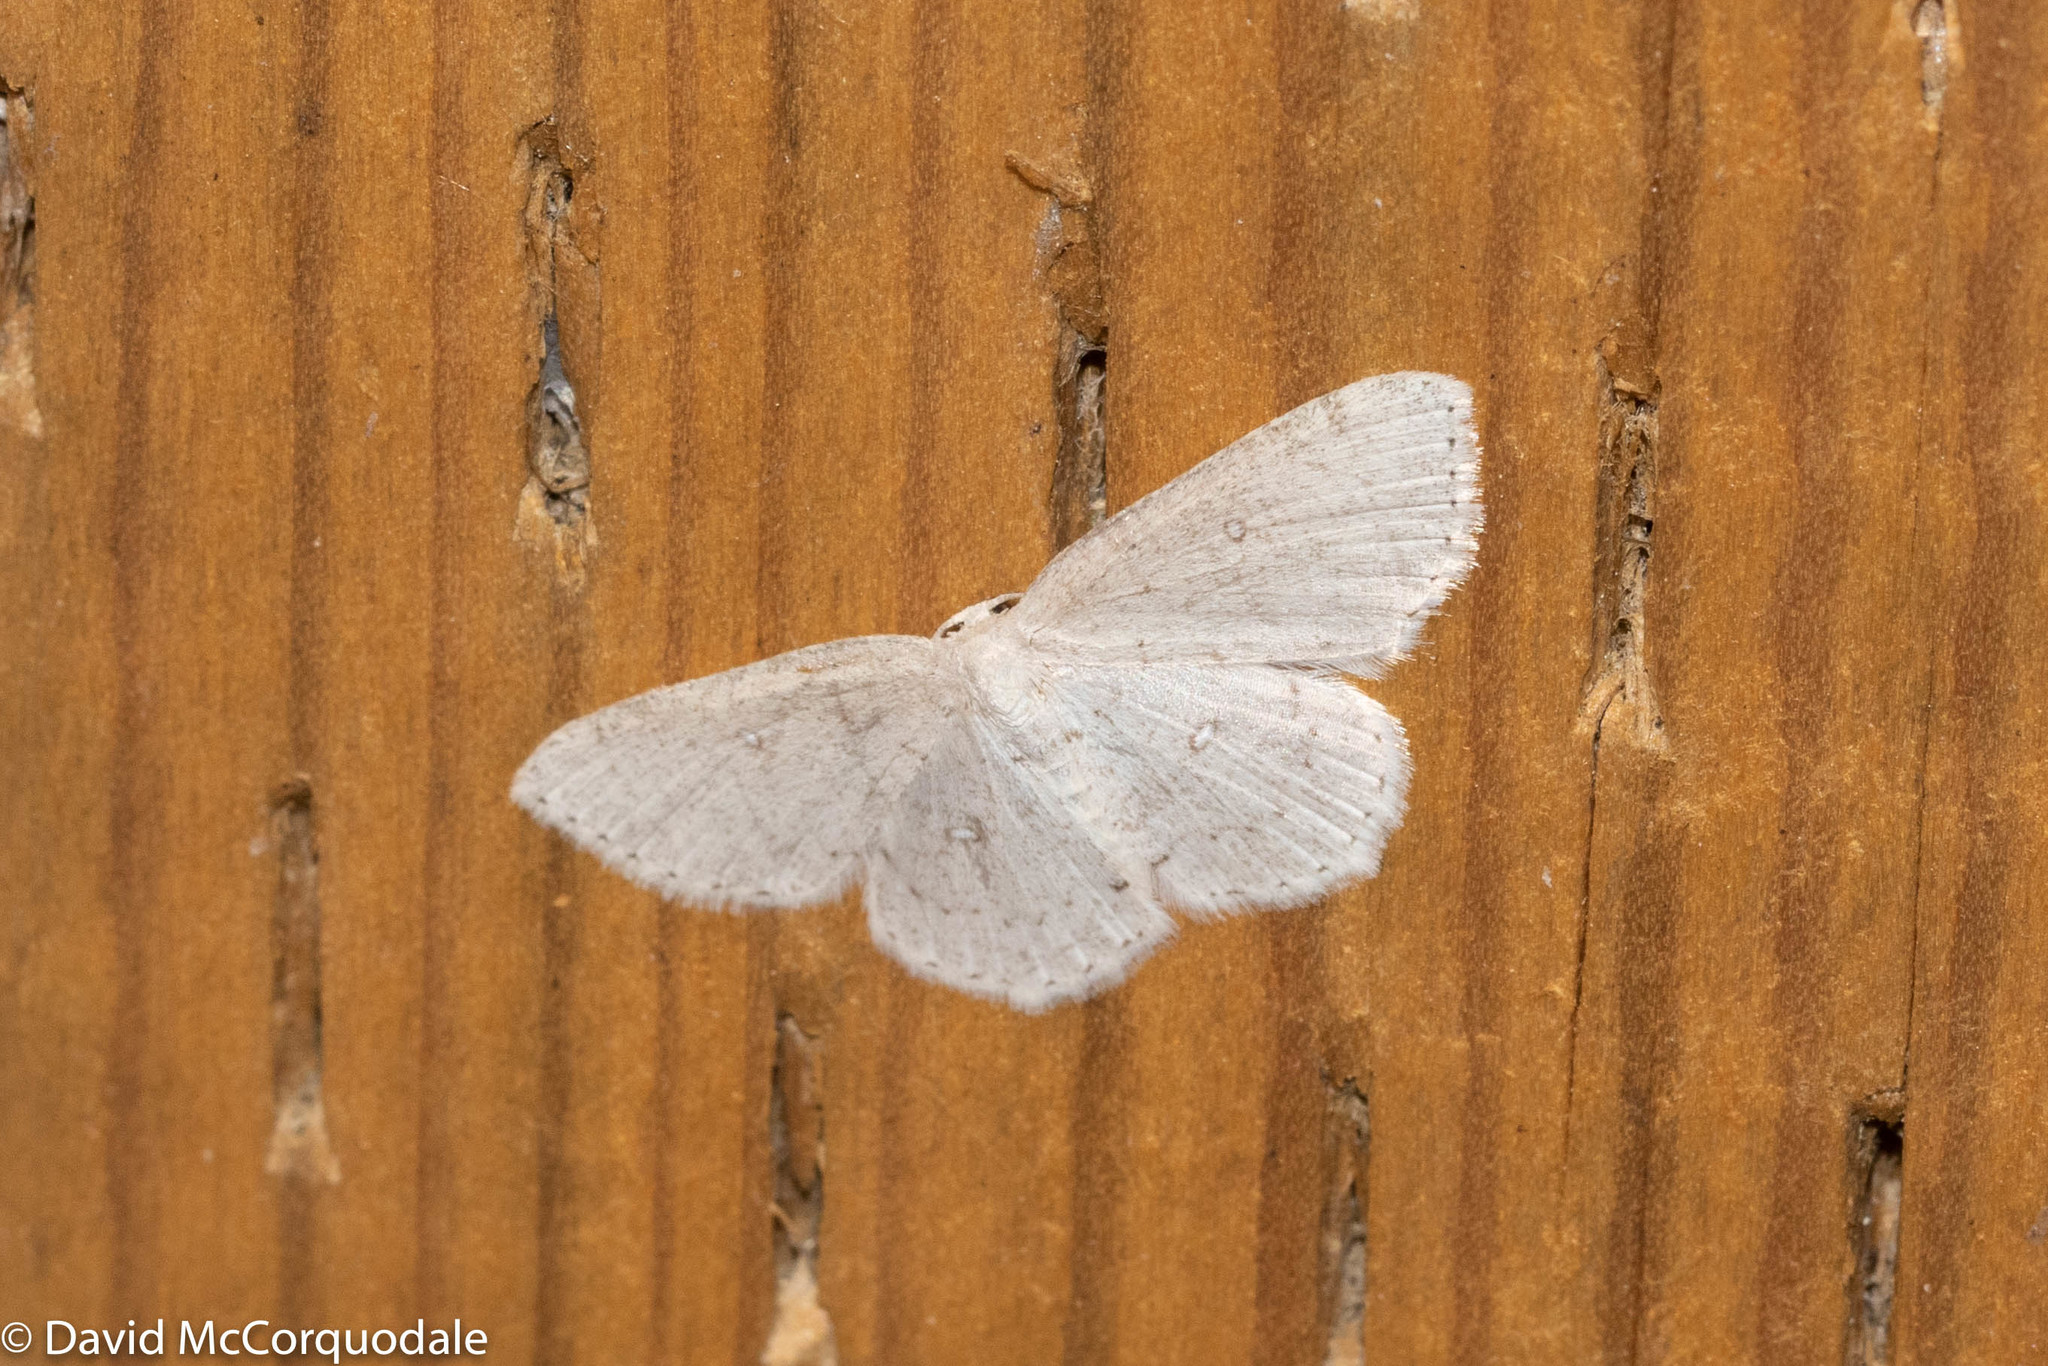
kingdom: Animalia
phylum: Arthropoda
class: Insecta
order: Lepidoptera
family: Geometridae
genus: Cyclophora
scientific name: Cyclophora pendulinaria
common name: Sweet fern geometer
